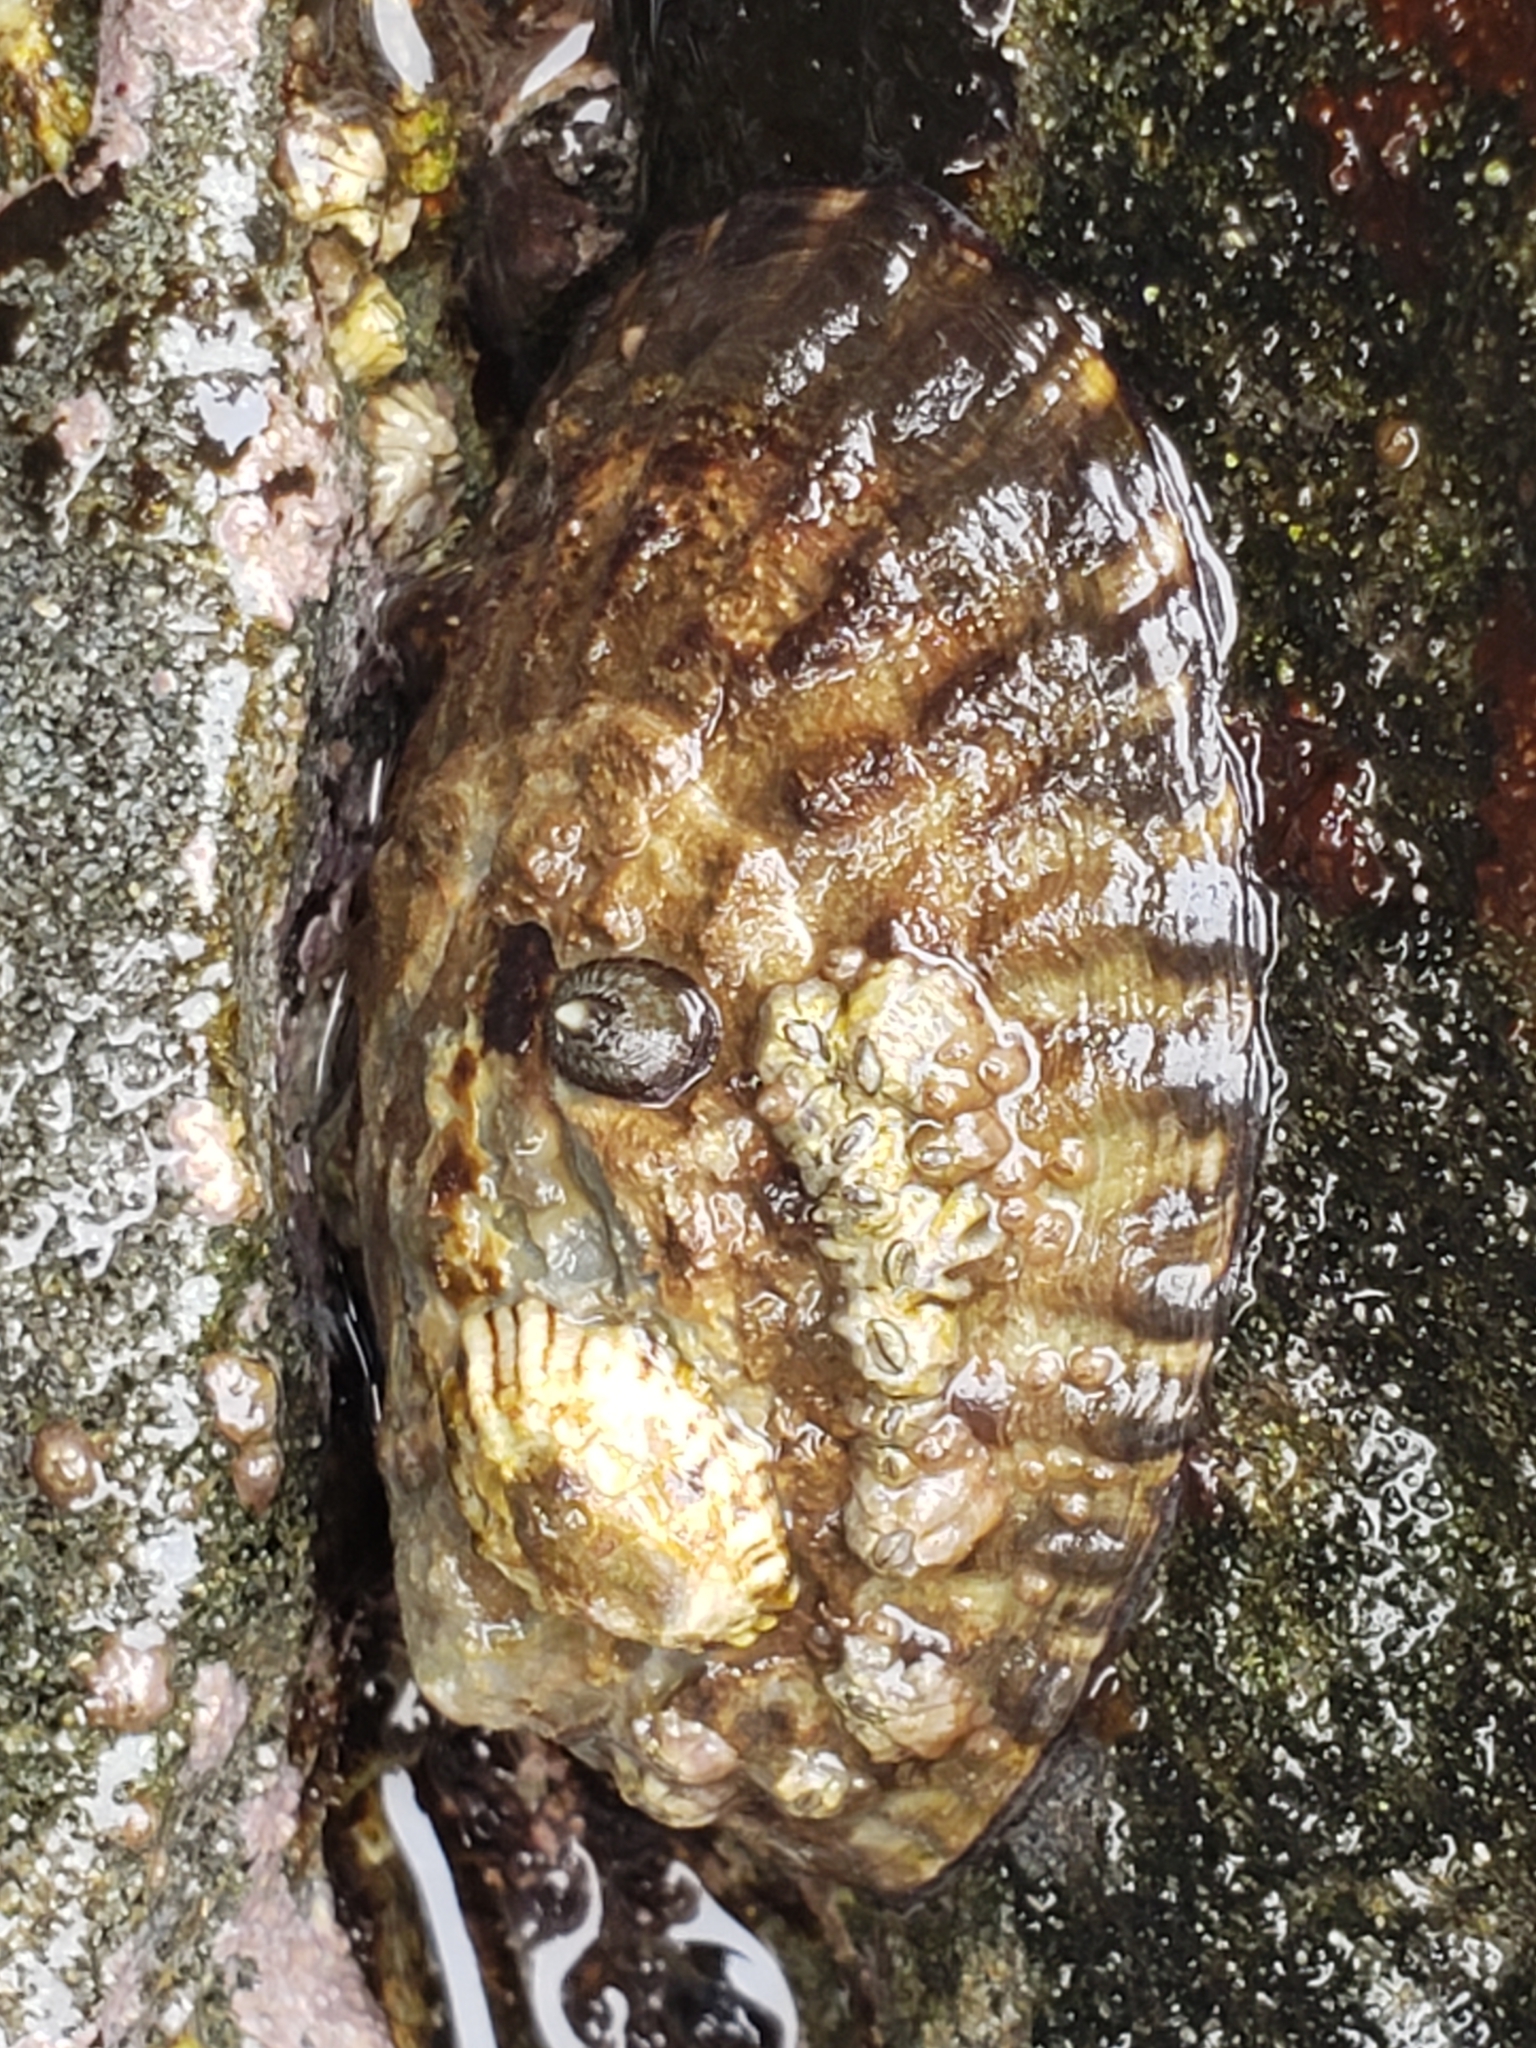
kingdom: Animalia
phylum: Mollusca
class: Gastropoda
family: Lottiidae
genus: Lottia
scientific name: Lottia gigantea
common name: Owl limpet
